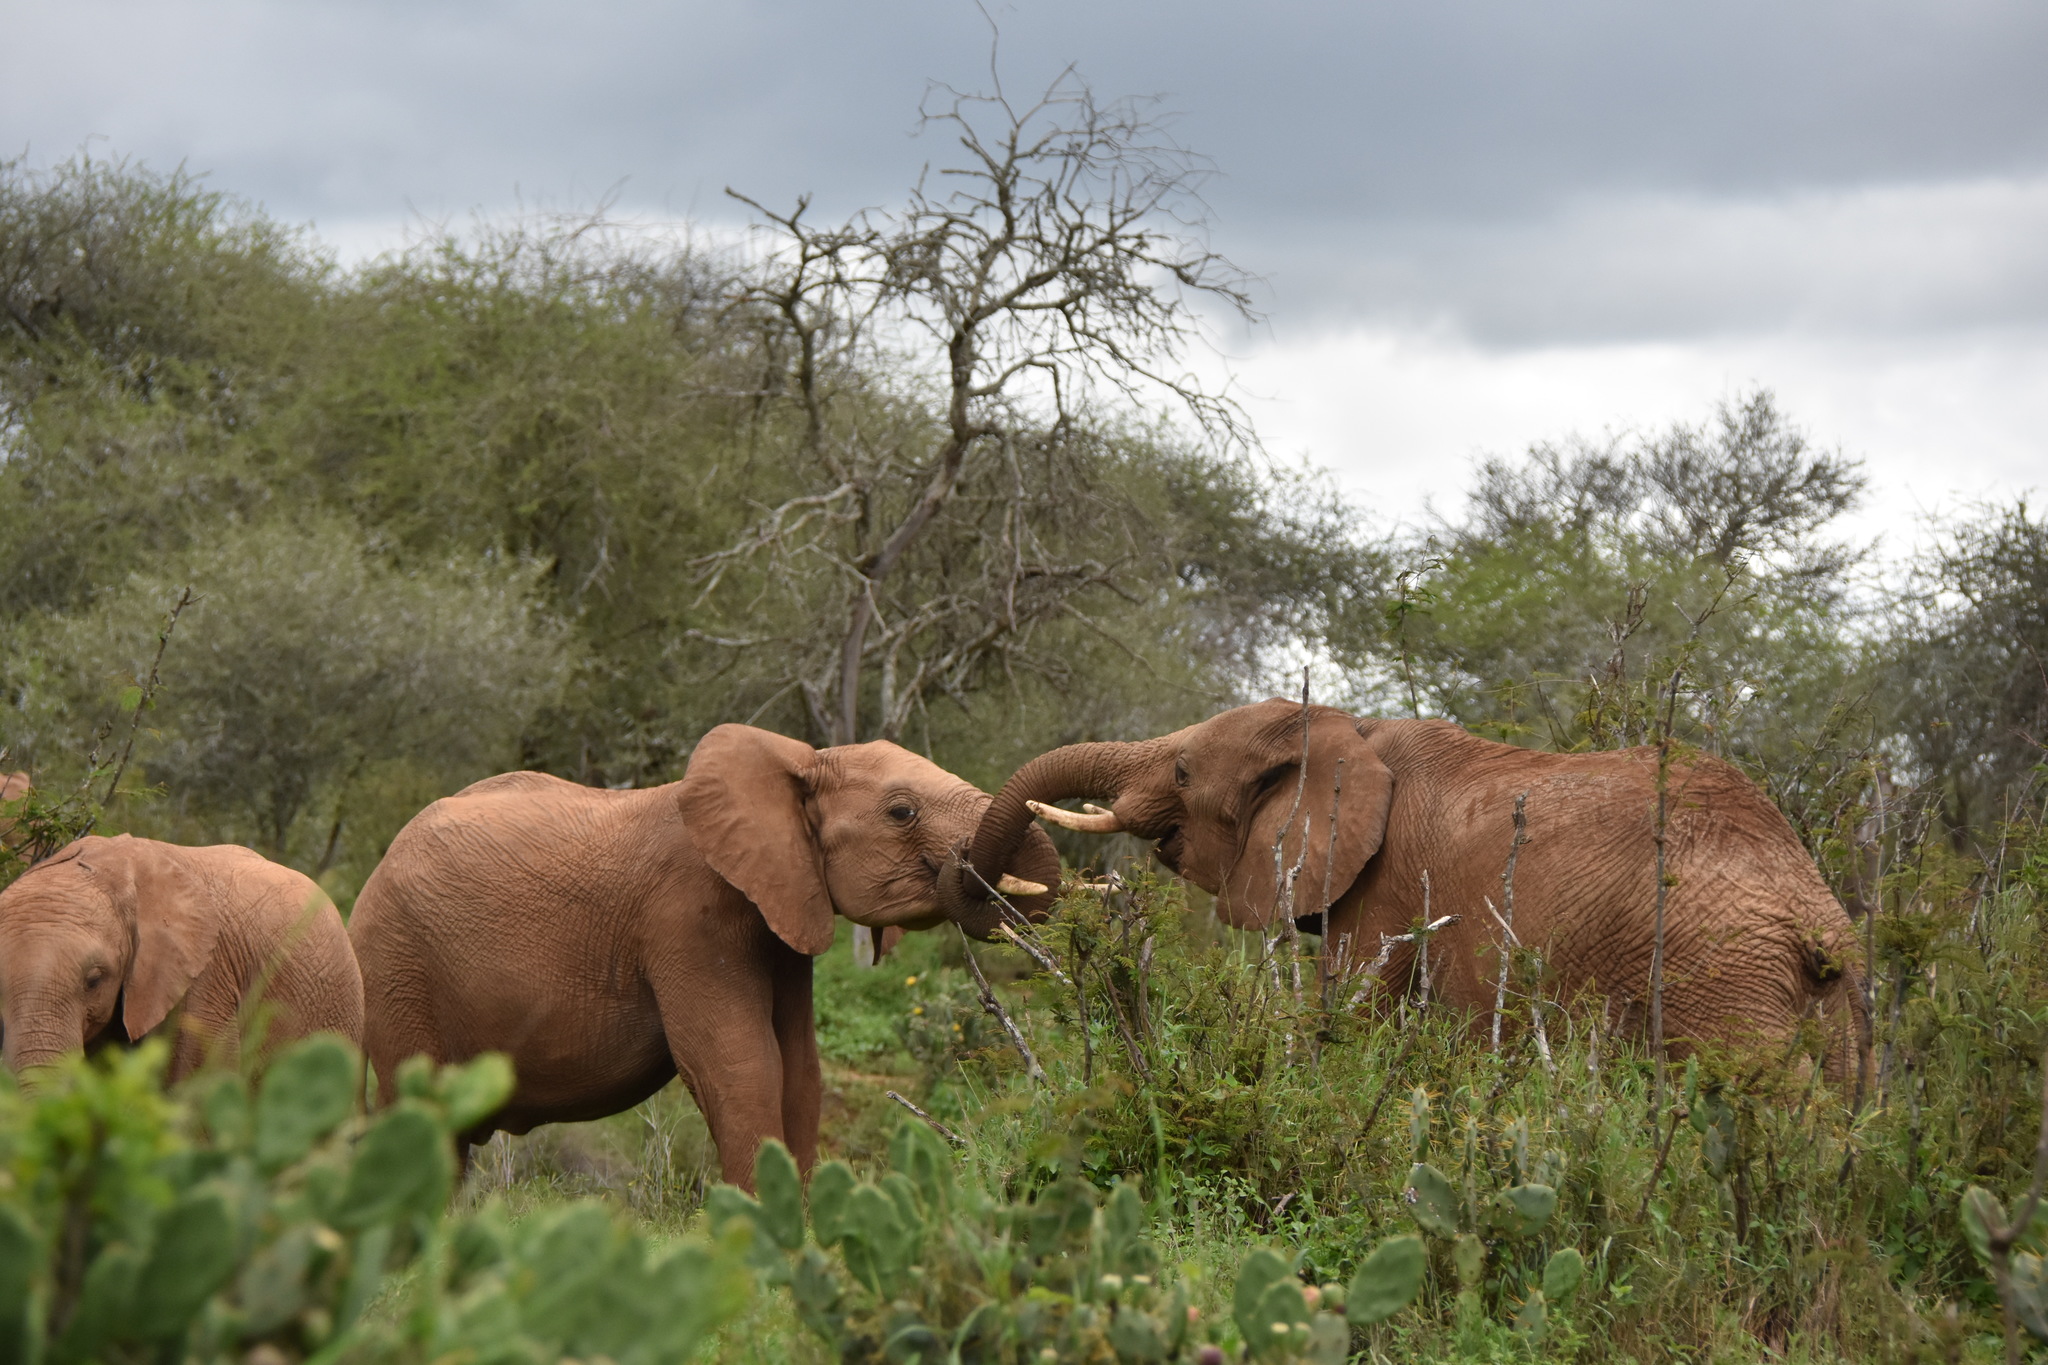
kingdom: Animalia
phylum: Chordata
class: Mammalia
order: Proboscidea
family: Elephantidae
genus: Loxodonta
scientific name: Loxodonta africana
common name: African elephant
